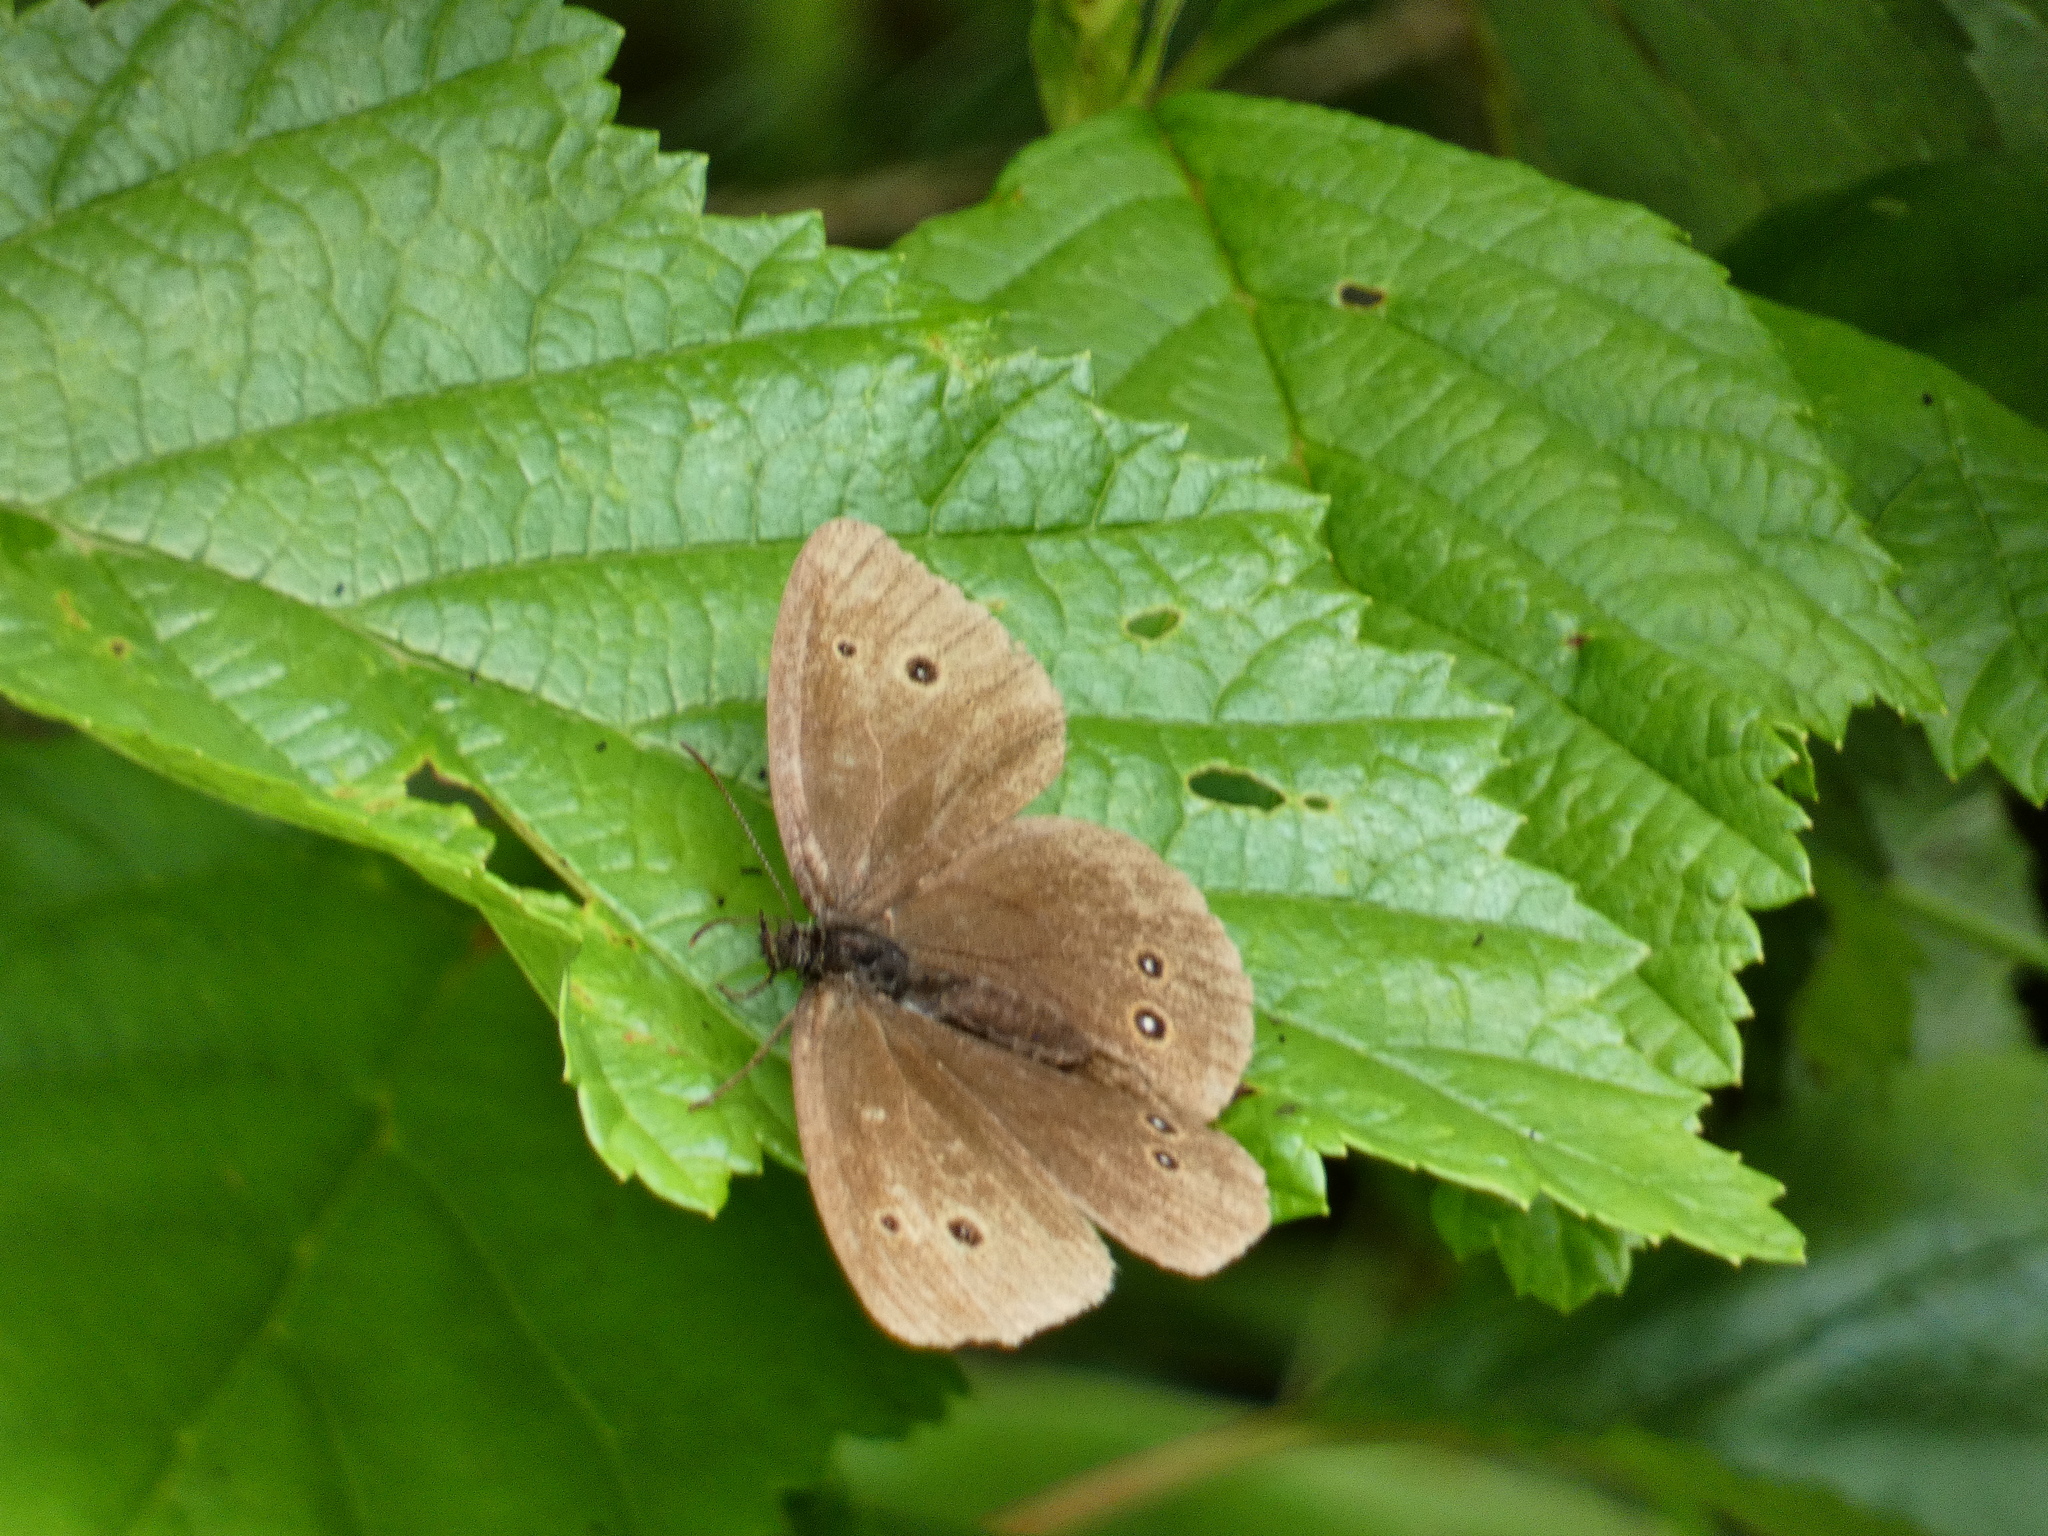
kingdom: Animalia
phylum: Arthropoda
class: Insecta
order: Lepidoptera
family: Nymphalidae
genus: Aphantopus
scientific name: Aphantopus hyperantus
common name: Ringlet
